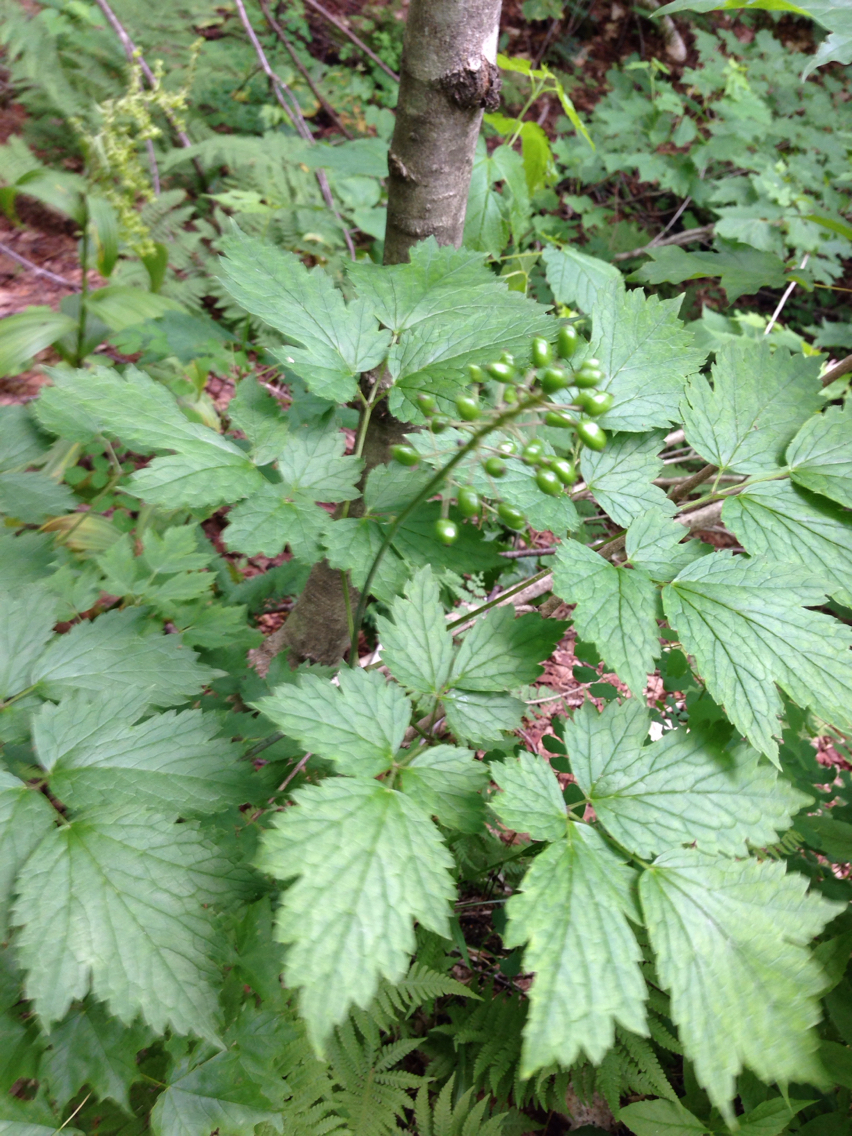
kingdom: Plantae
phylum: Tracheophyta
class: Magnoliopsida
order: Ranunculales
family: Ranunculaceae
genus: Actaea
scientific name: Actaea rubra
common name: Red baneberry
